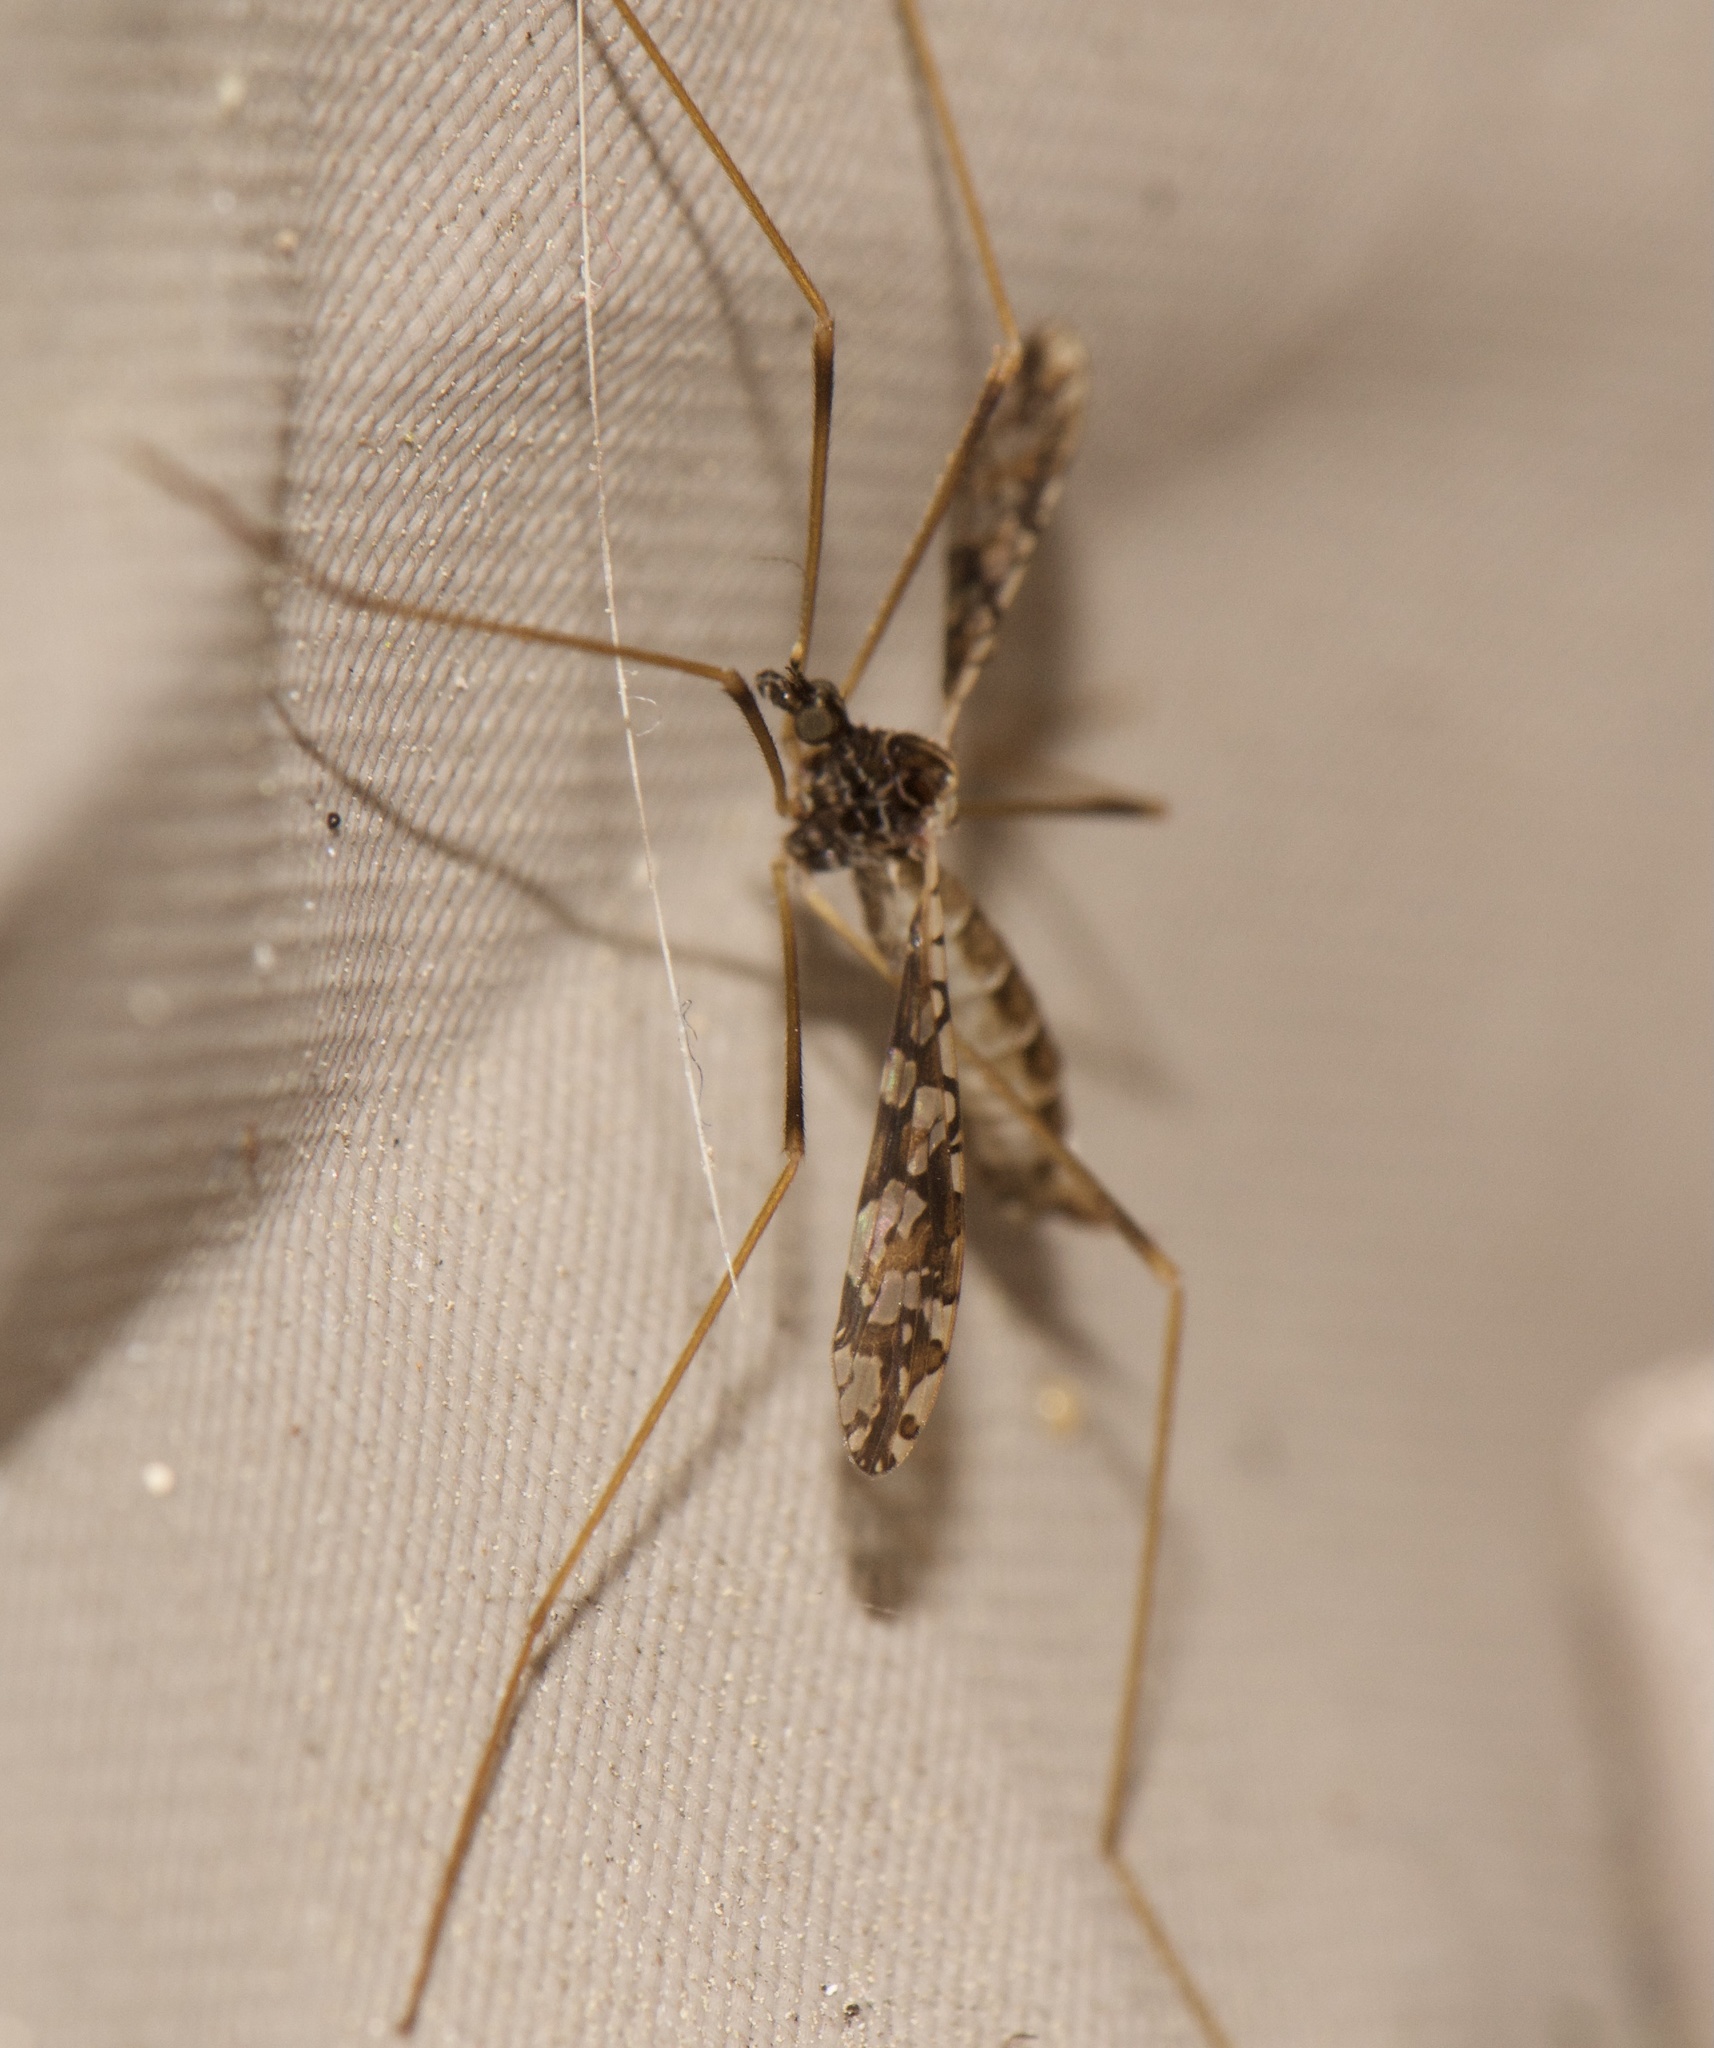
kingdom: Animalia
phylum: Arthropoda
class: Insecta
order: Diptera
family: Limoniidae
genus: Epiphragma
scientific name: Epiphragma solatrix
